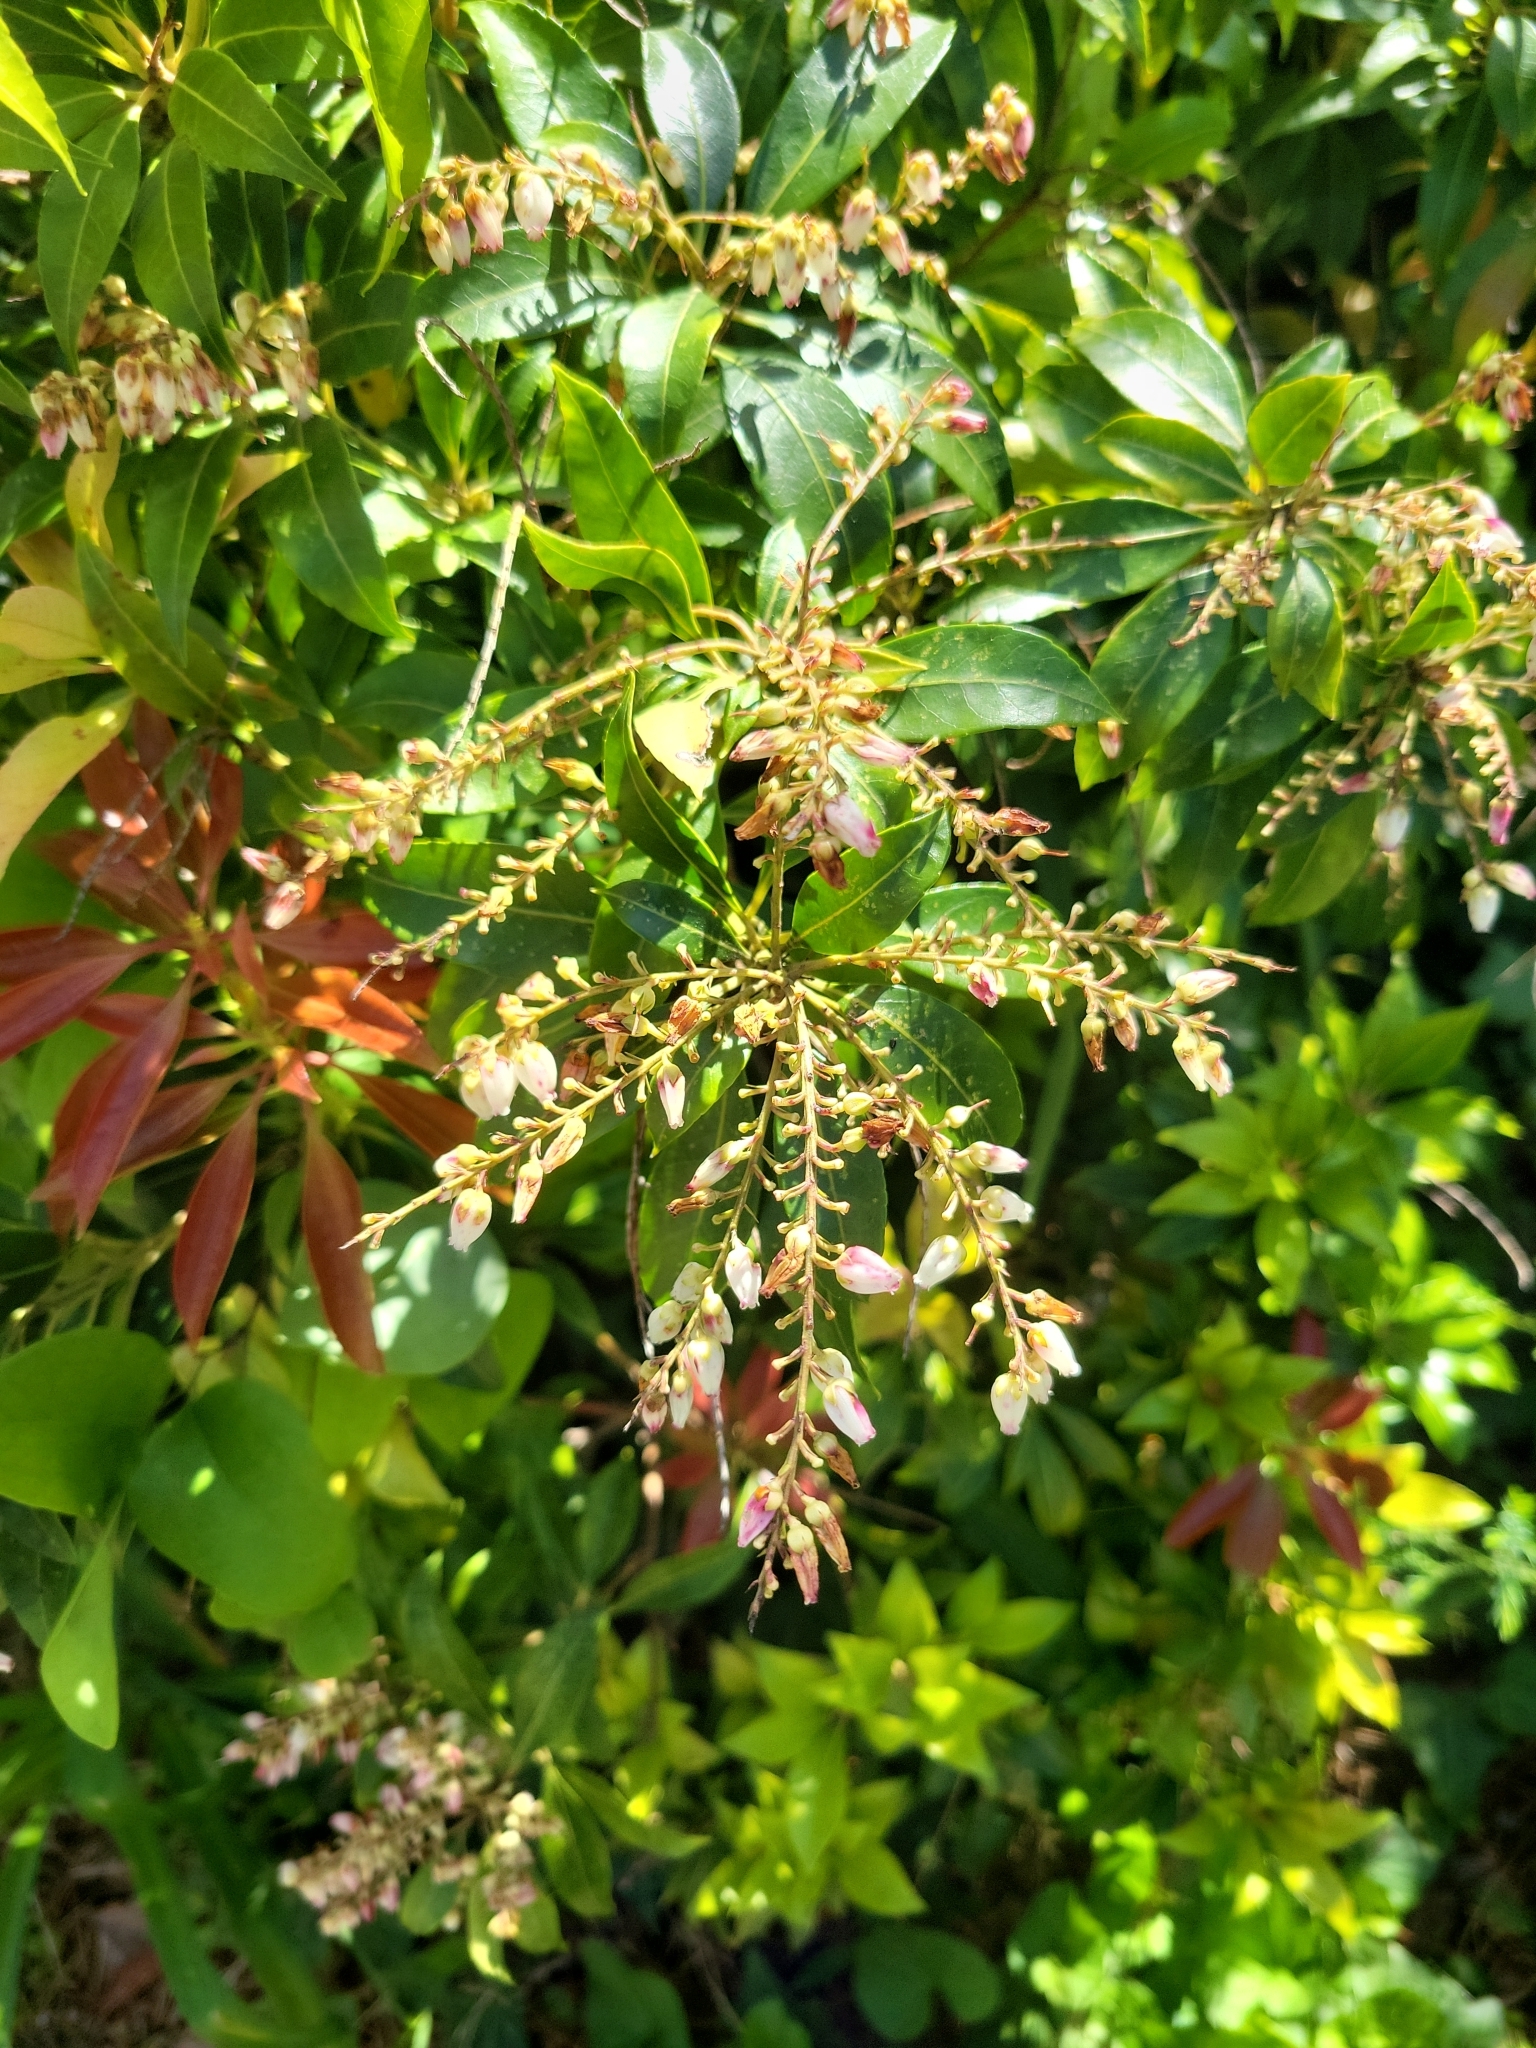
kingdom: Plantae
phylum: Tracheophyta
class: Magnoliopsida
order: Ericales
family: Ericaceae
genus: Pieris
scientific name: Pieris japonica
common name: Japanese pieris
